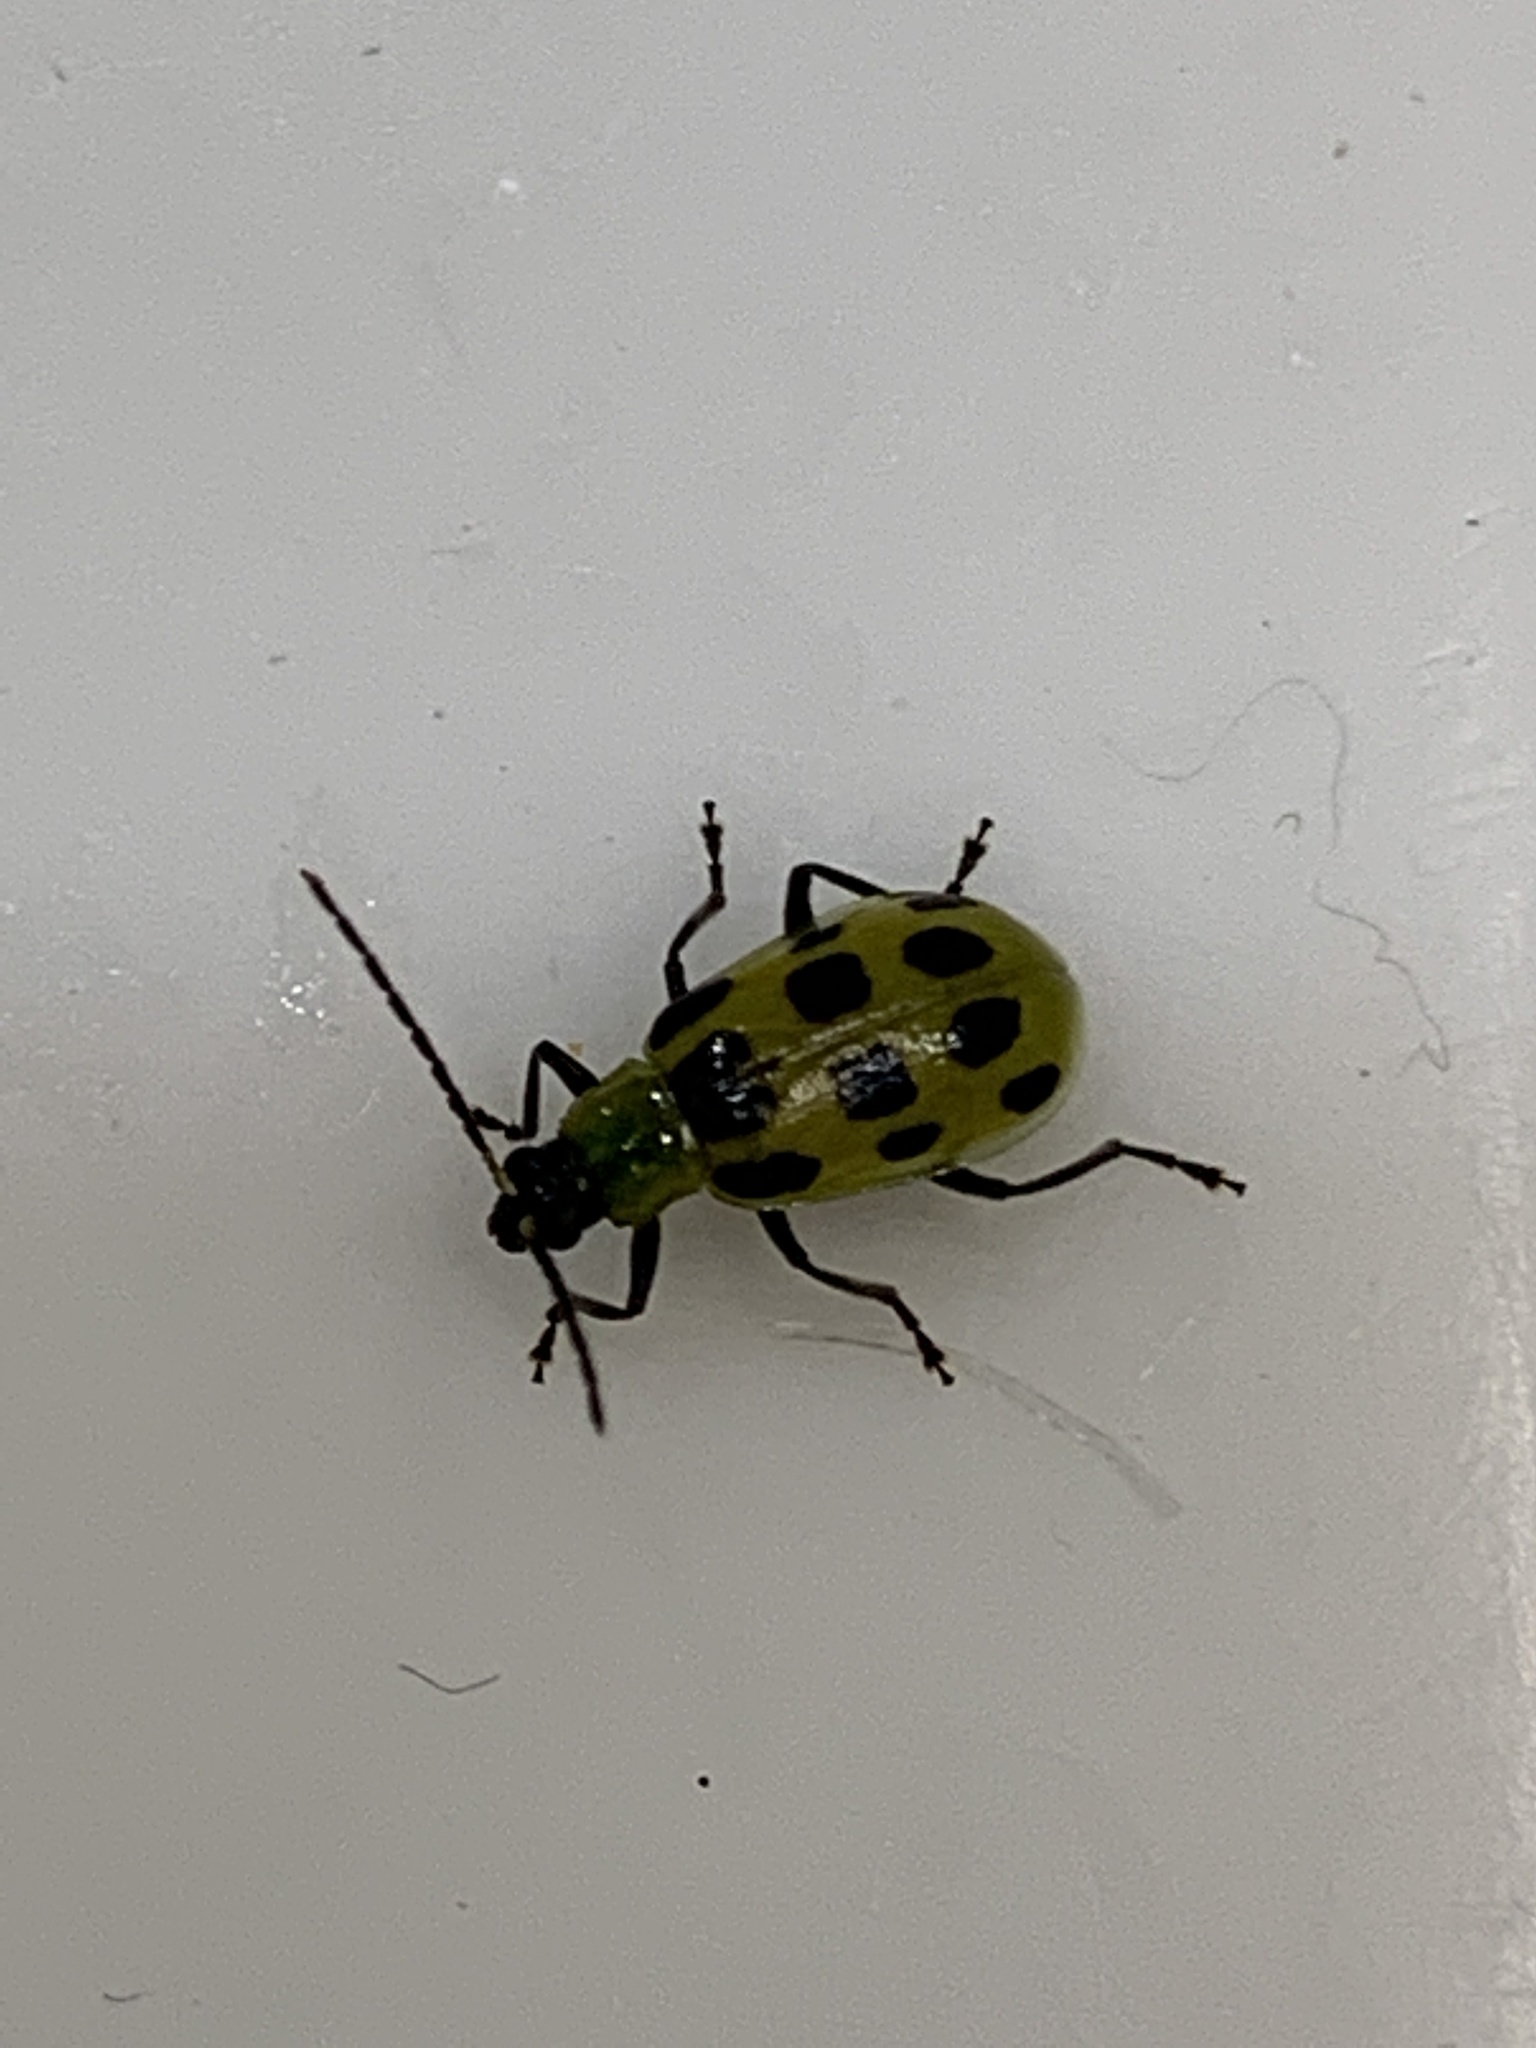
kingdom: Animalia
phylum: Arthropoda
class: Insecta
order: Coleoptera
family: Chrysomelidae
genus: Diabrotica
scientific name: Diabrotica undecimpunctata
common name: Spotted cucumber beetle
